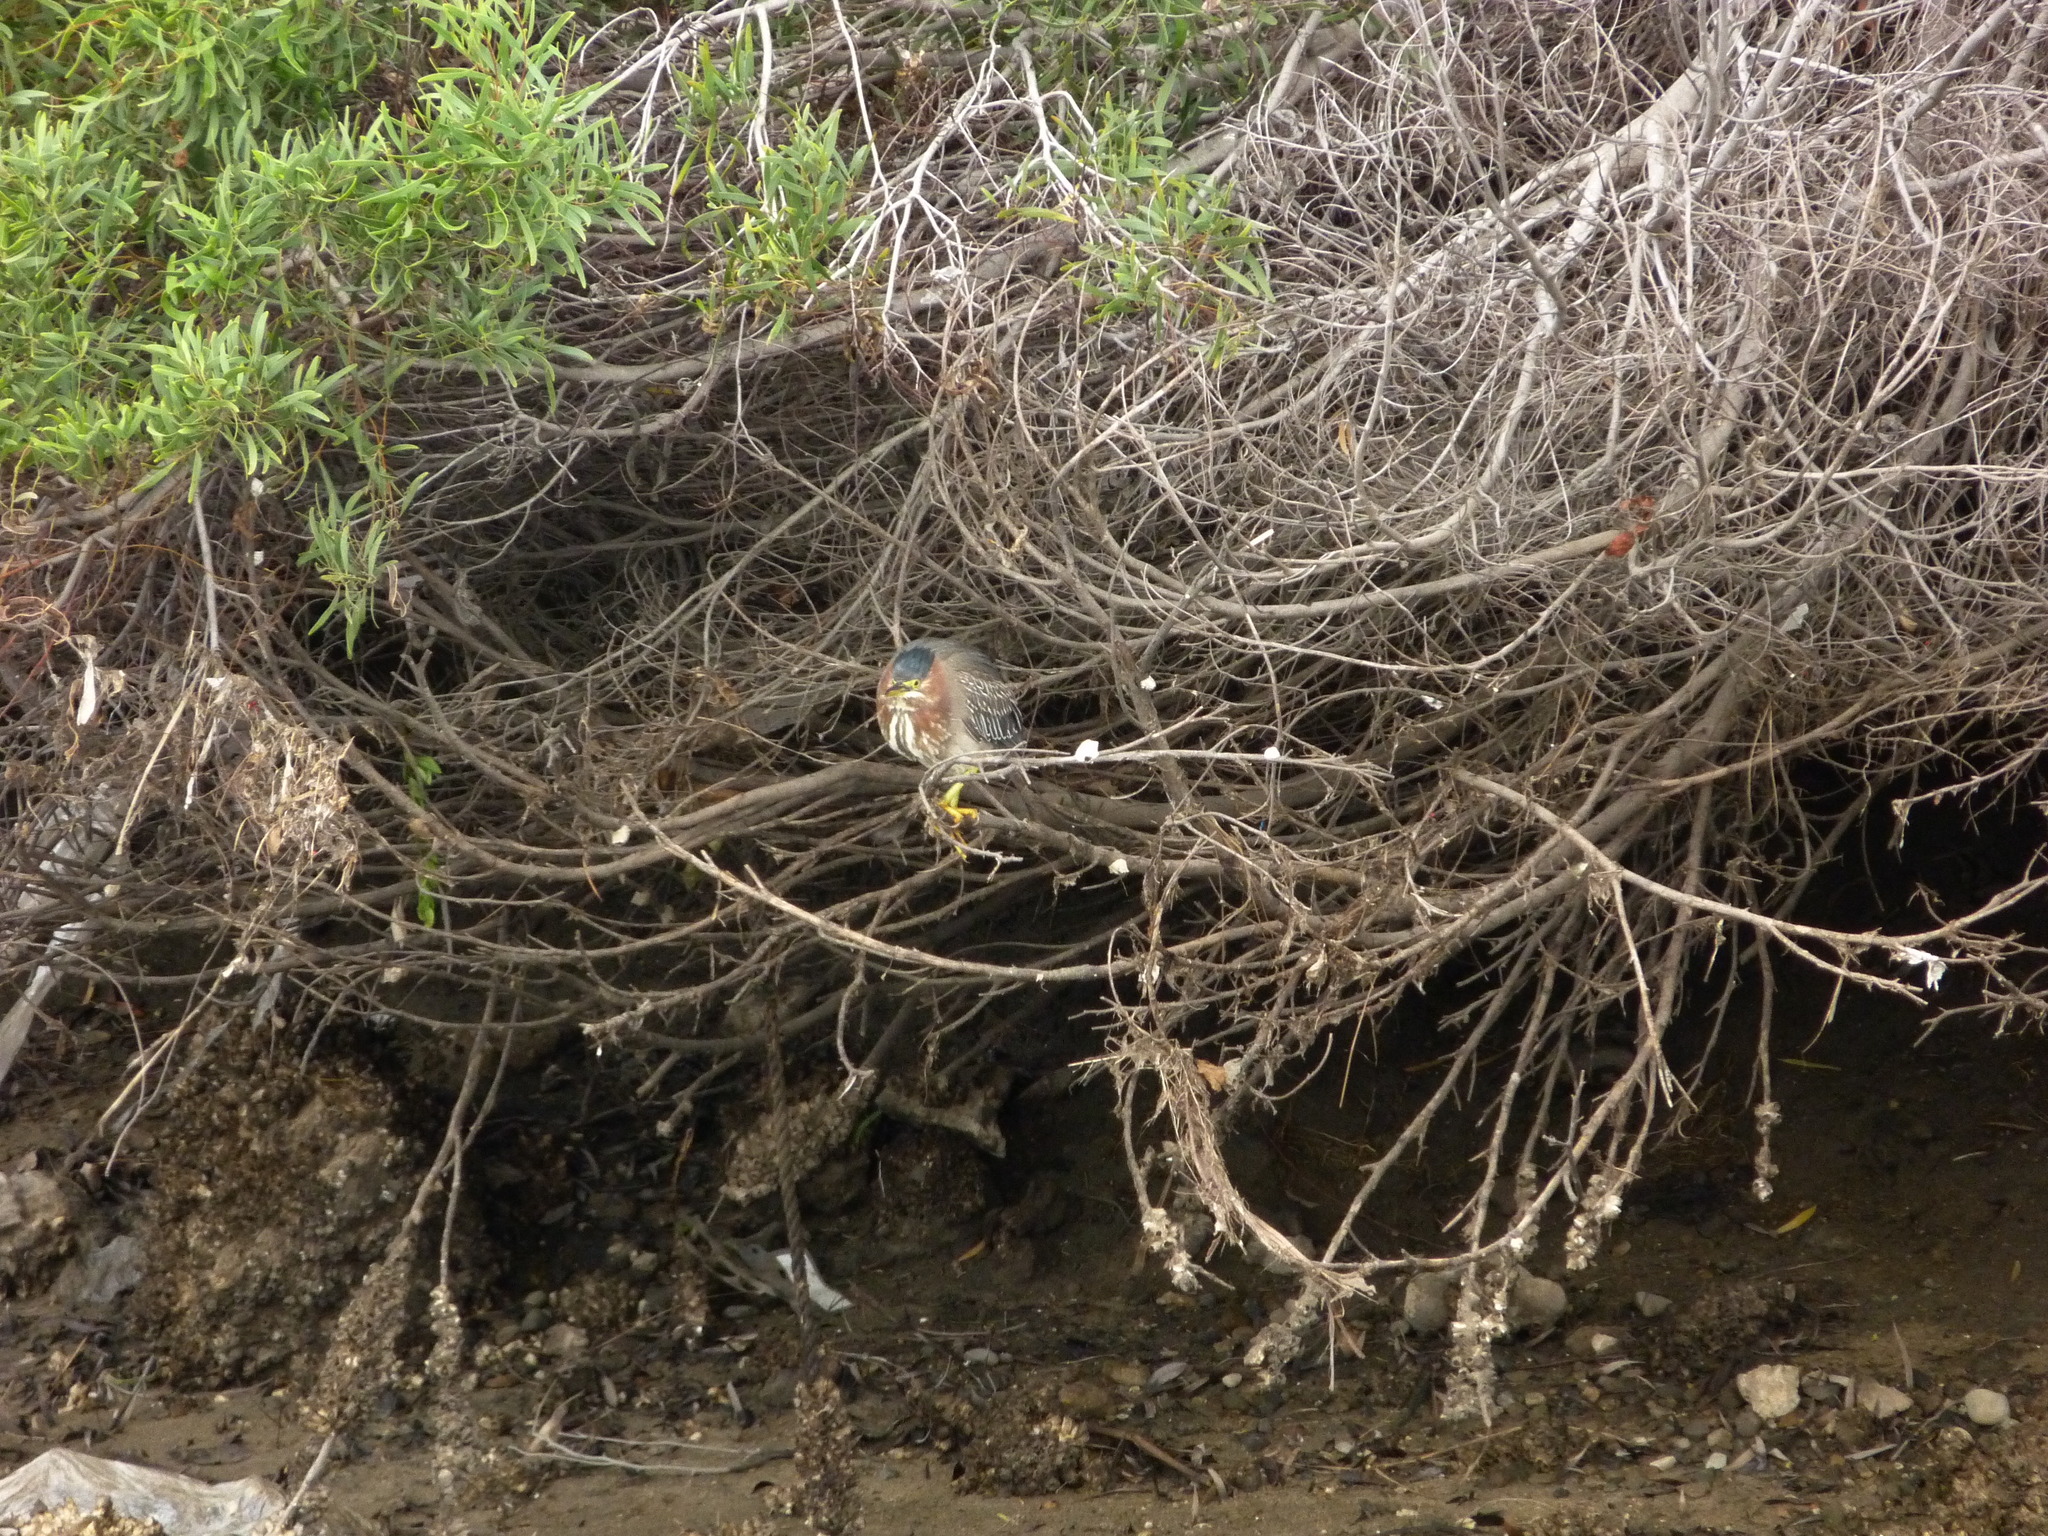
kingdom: Animalia
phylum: Chordata
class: Aves
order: Pelecaniformes
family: Ardeidae
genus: Butorides
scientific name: Butorides virescens
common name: Green heron
